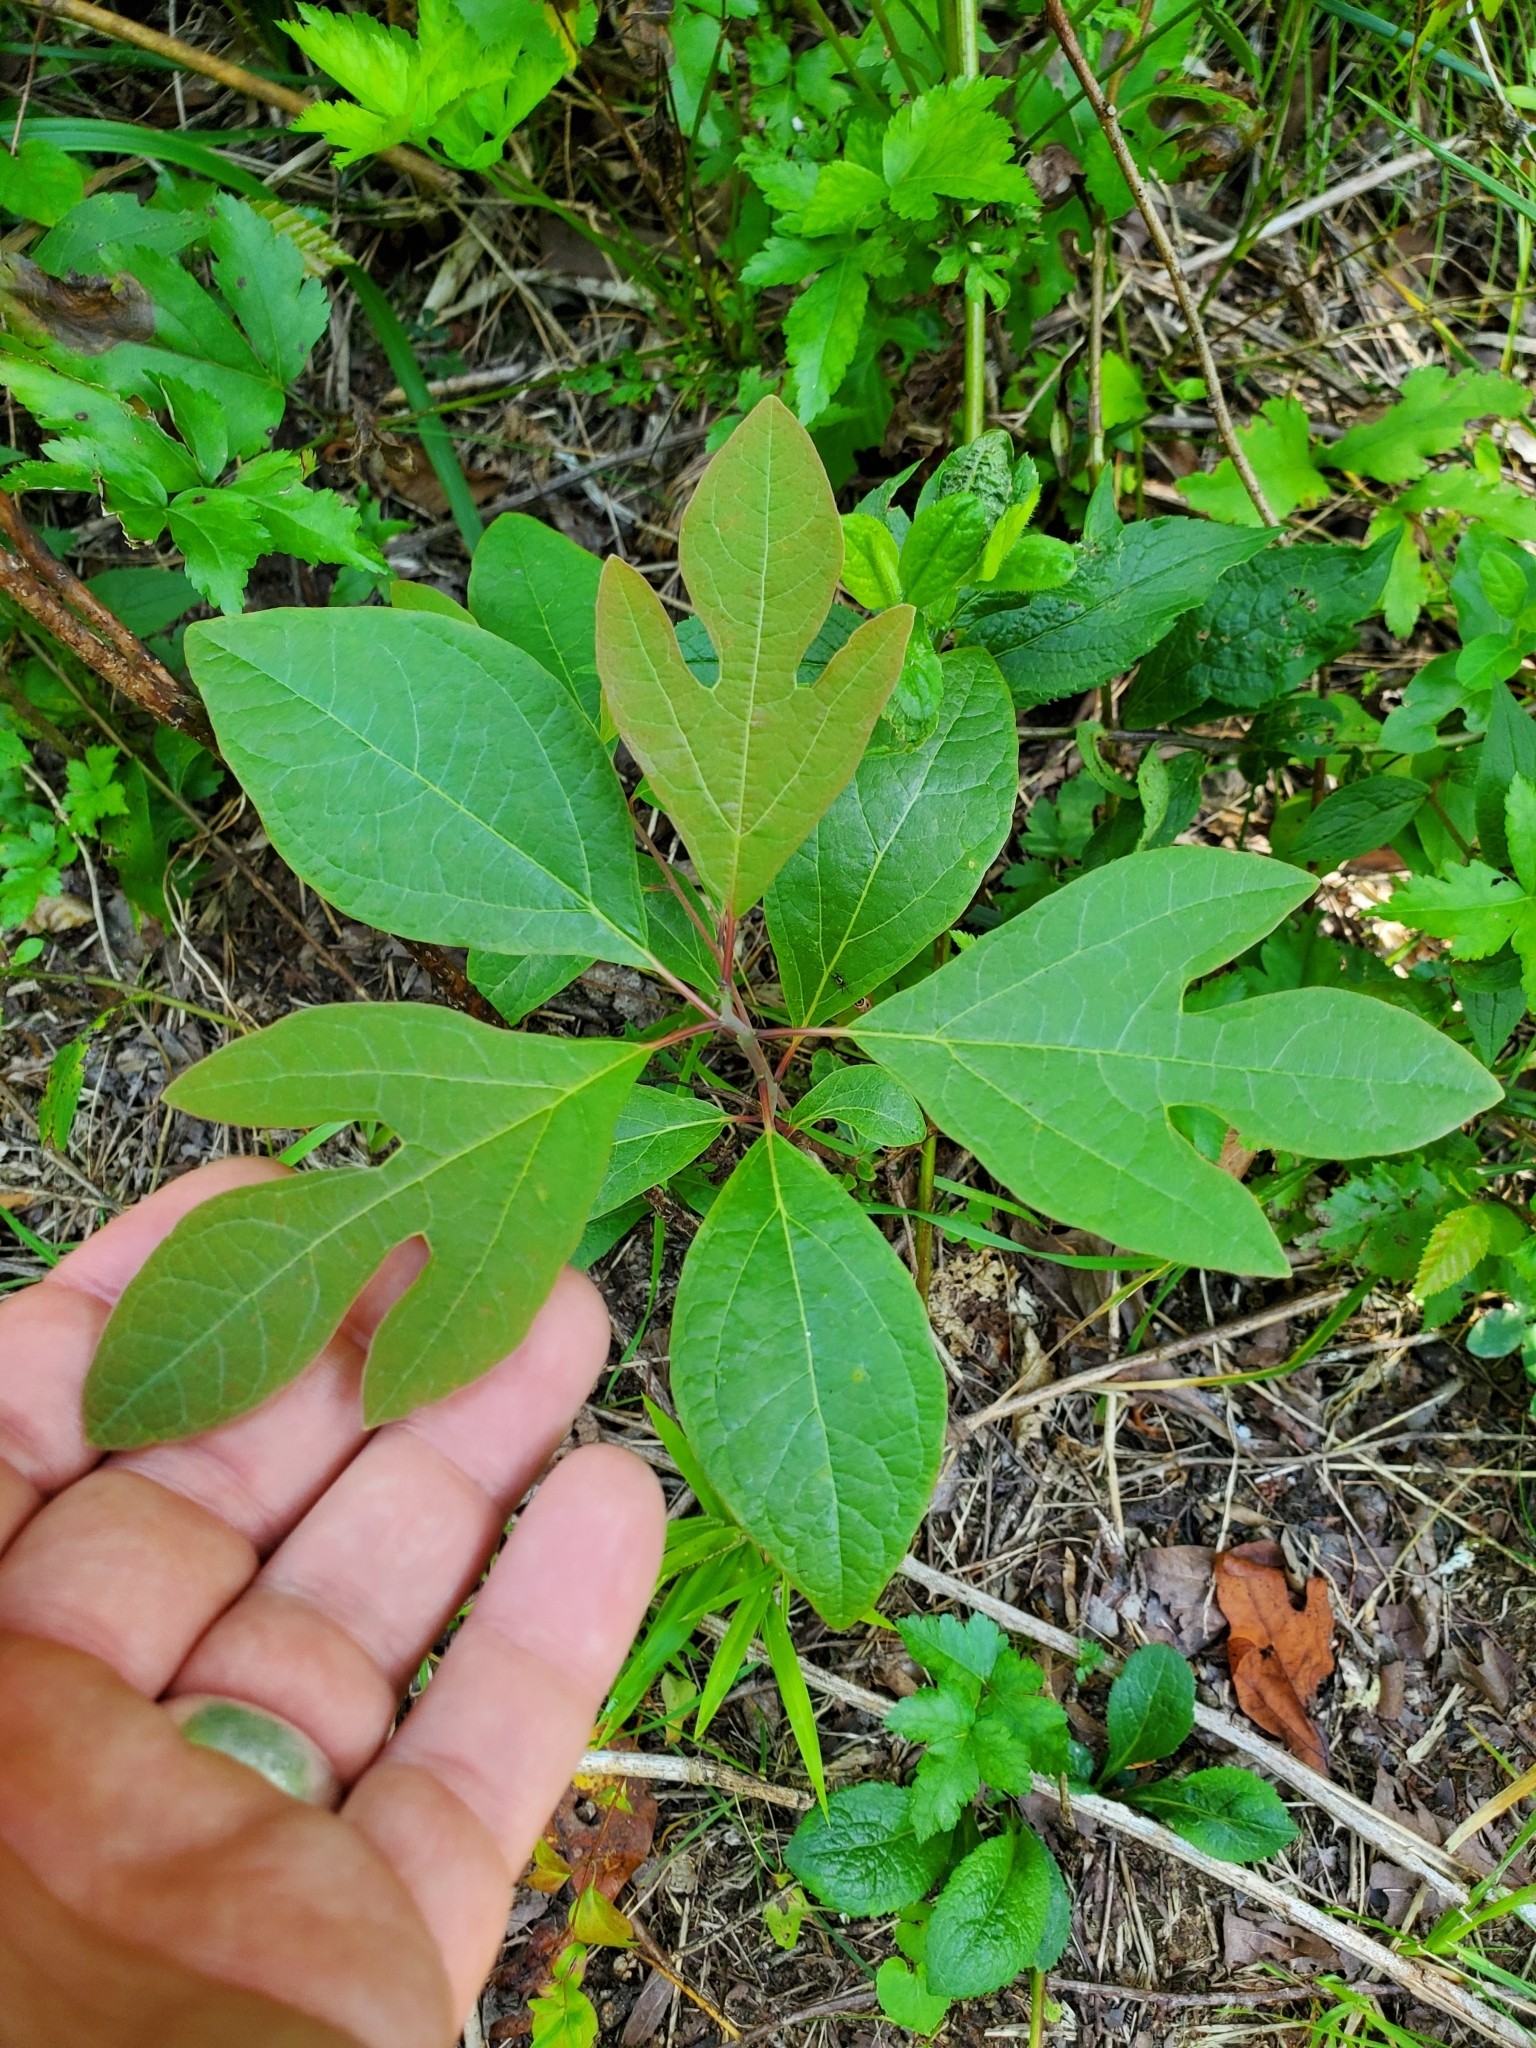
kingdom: Plantae
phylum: Tracheophyta
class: Magnoliopsida
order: Laurales
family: Lauraceae
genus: Sassafras
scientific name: Sassafras albidum
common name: Sassafras
